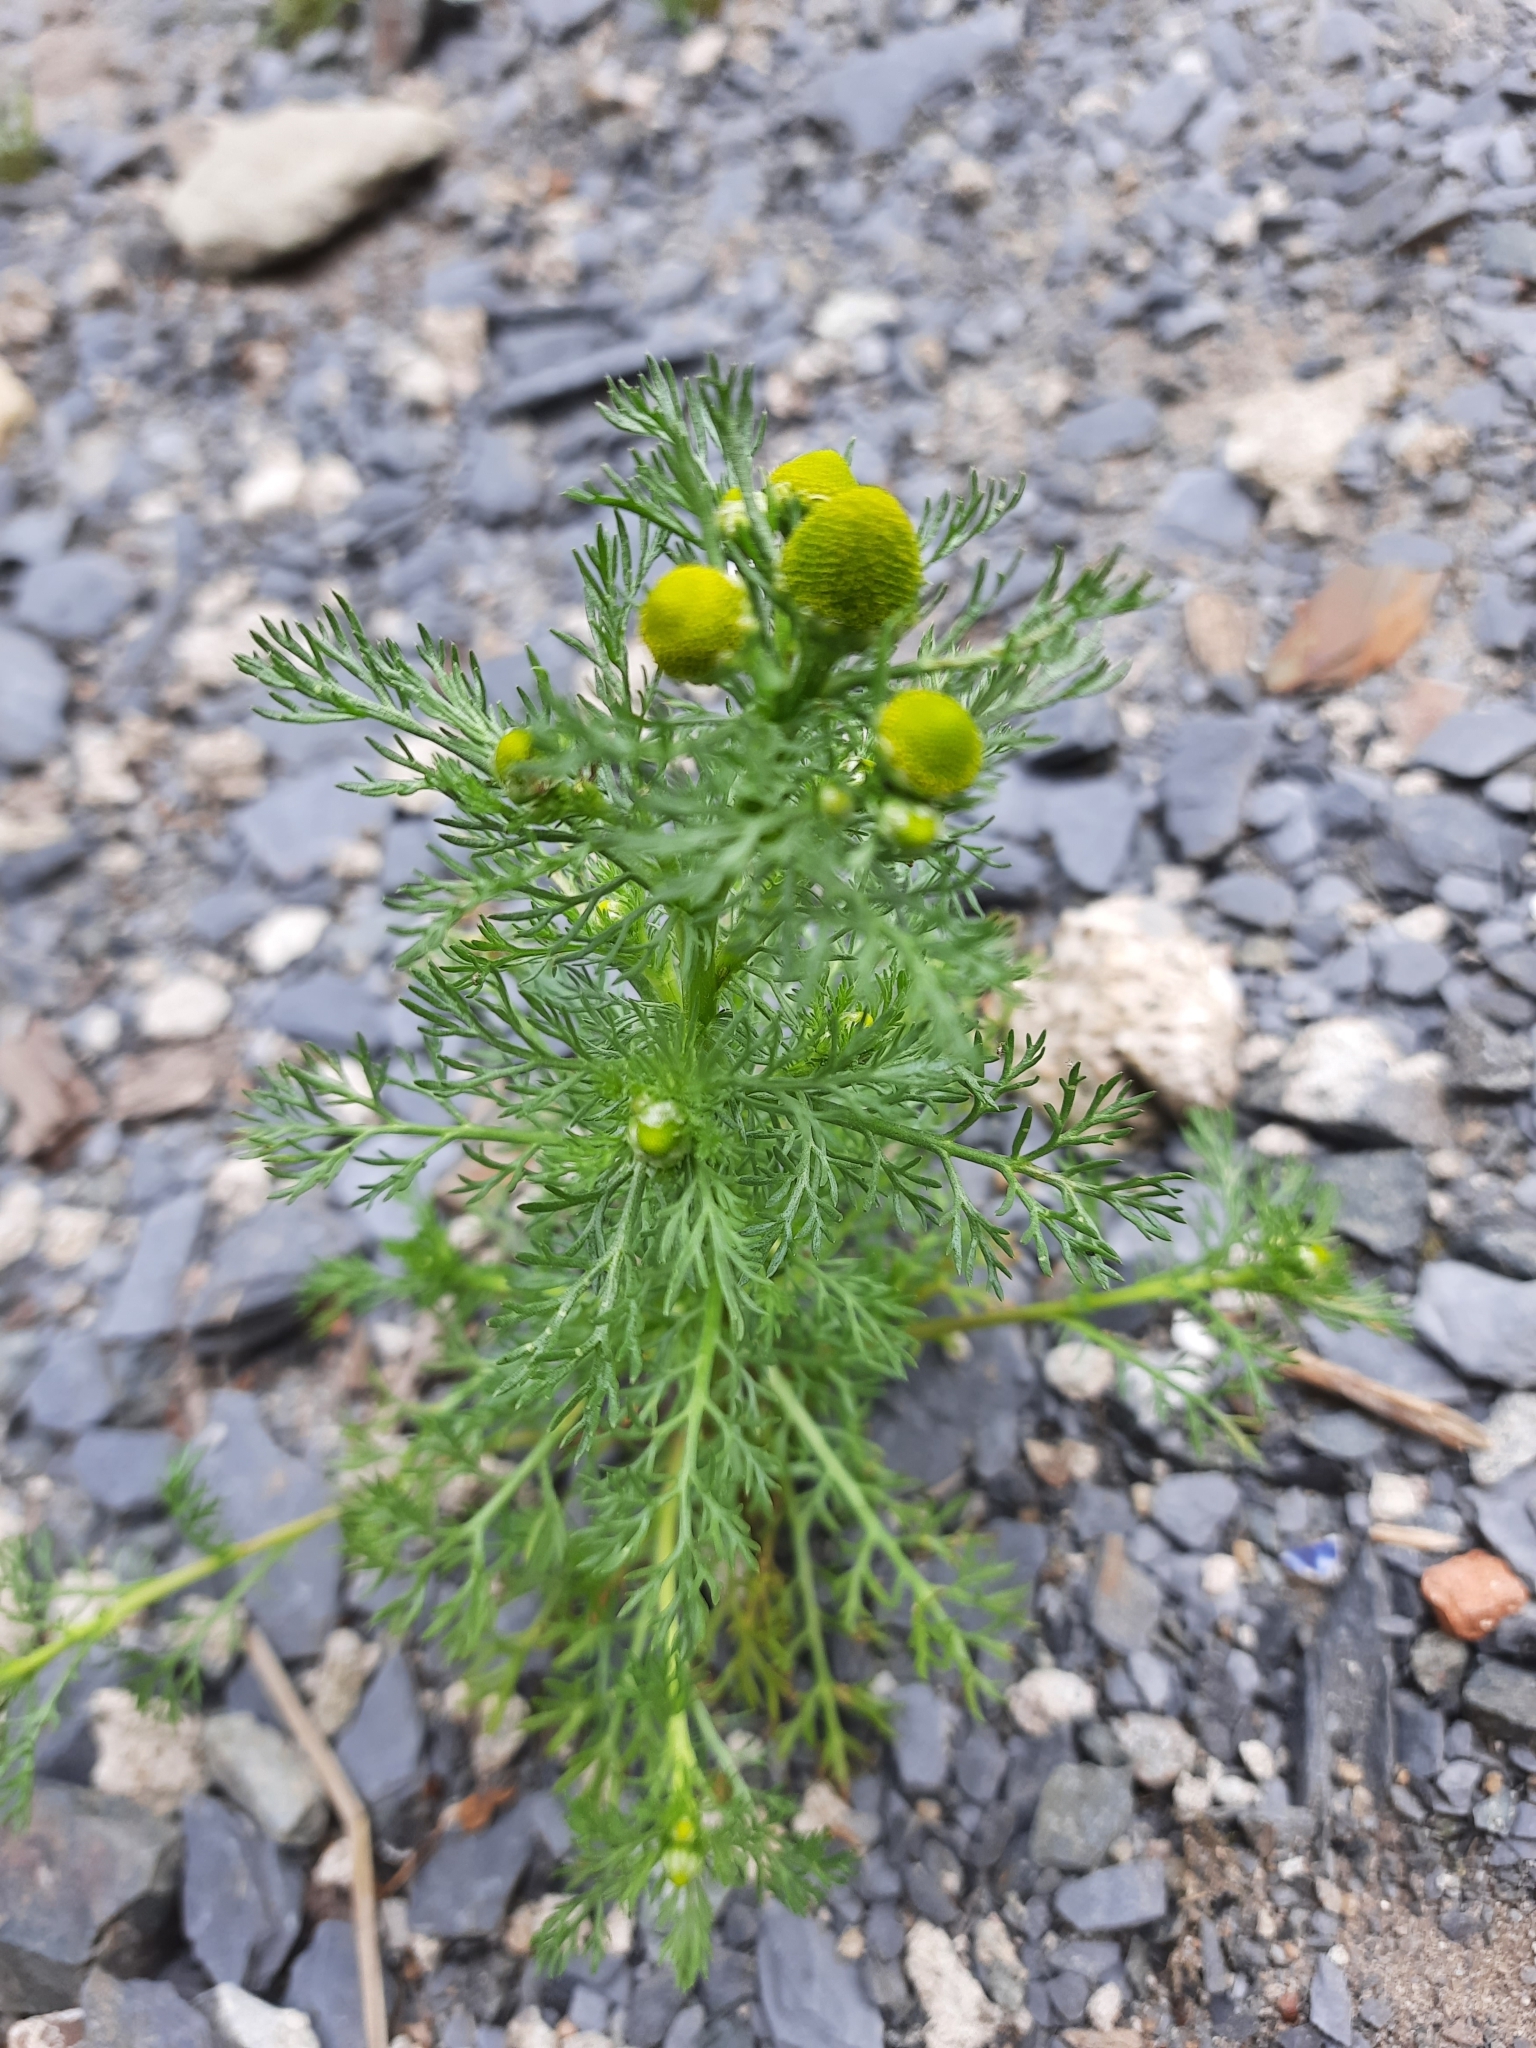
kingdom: Plantae
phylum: Tracheophyta
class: Magnoliopsida
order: Asterales
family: Asteraceae
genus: Matricaria
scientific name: Matricaria discoidea
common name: Disc mayweed
